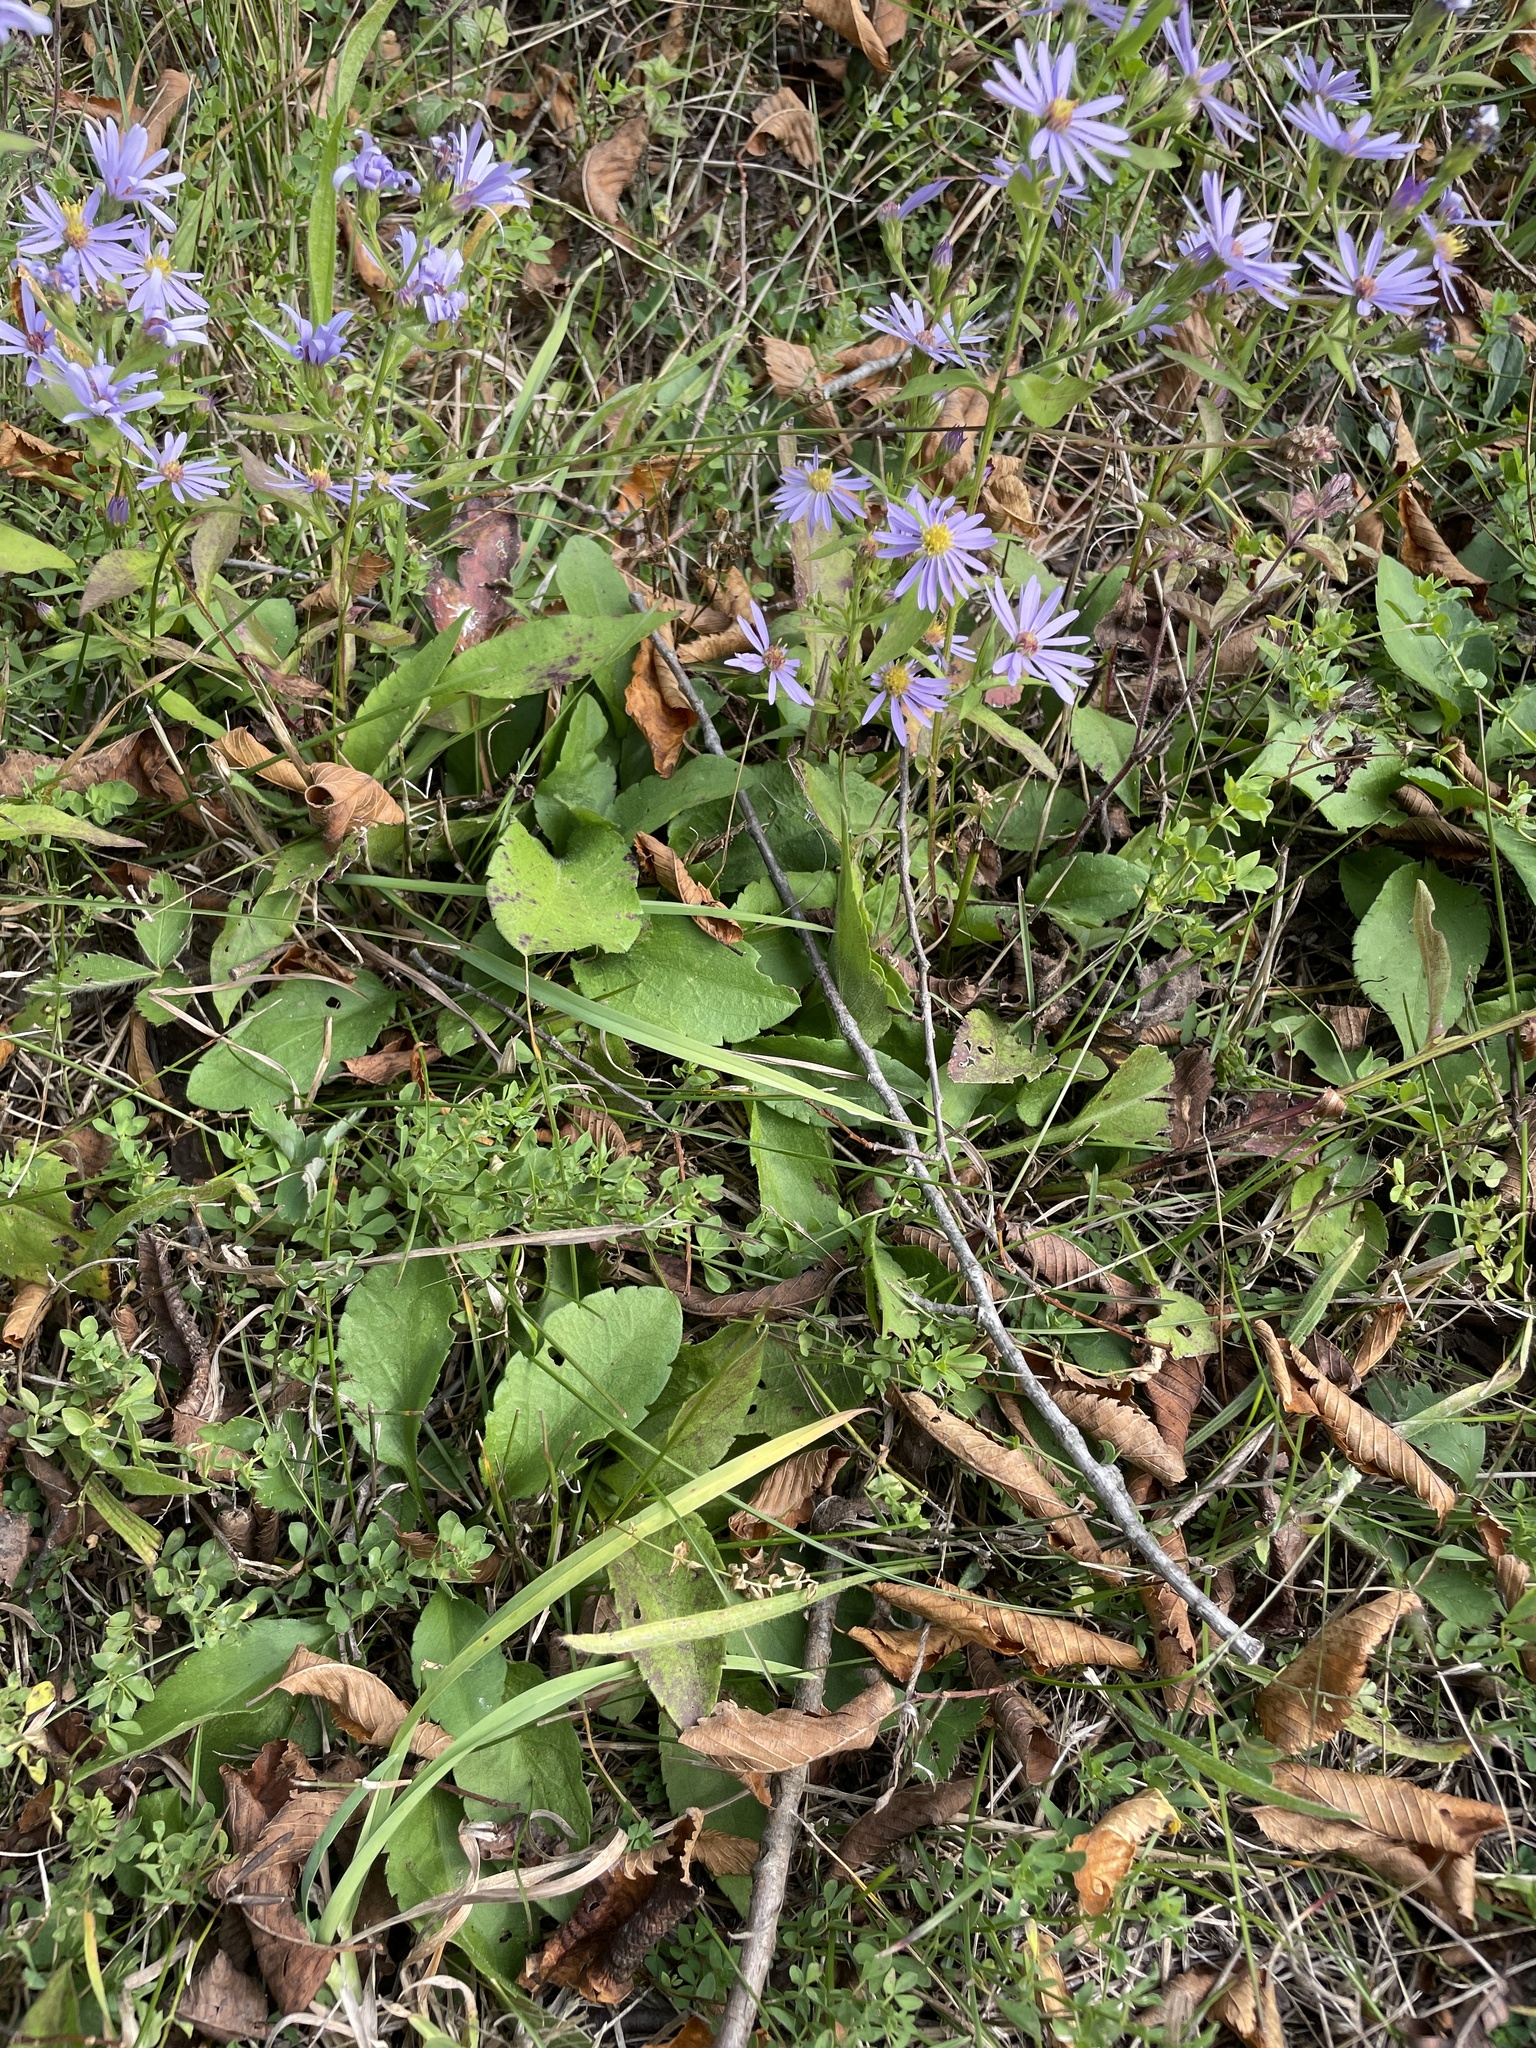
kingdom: Plantae
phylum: Tracheophyta
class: Magnoliopsida
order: Asterales
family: Asteraceae
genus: Symphyotrichum
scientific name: Symphyotrichum ciliolatum
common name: Fringed blue aster
